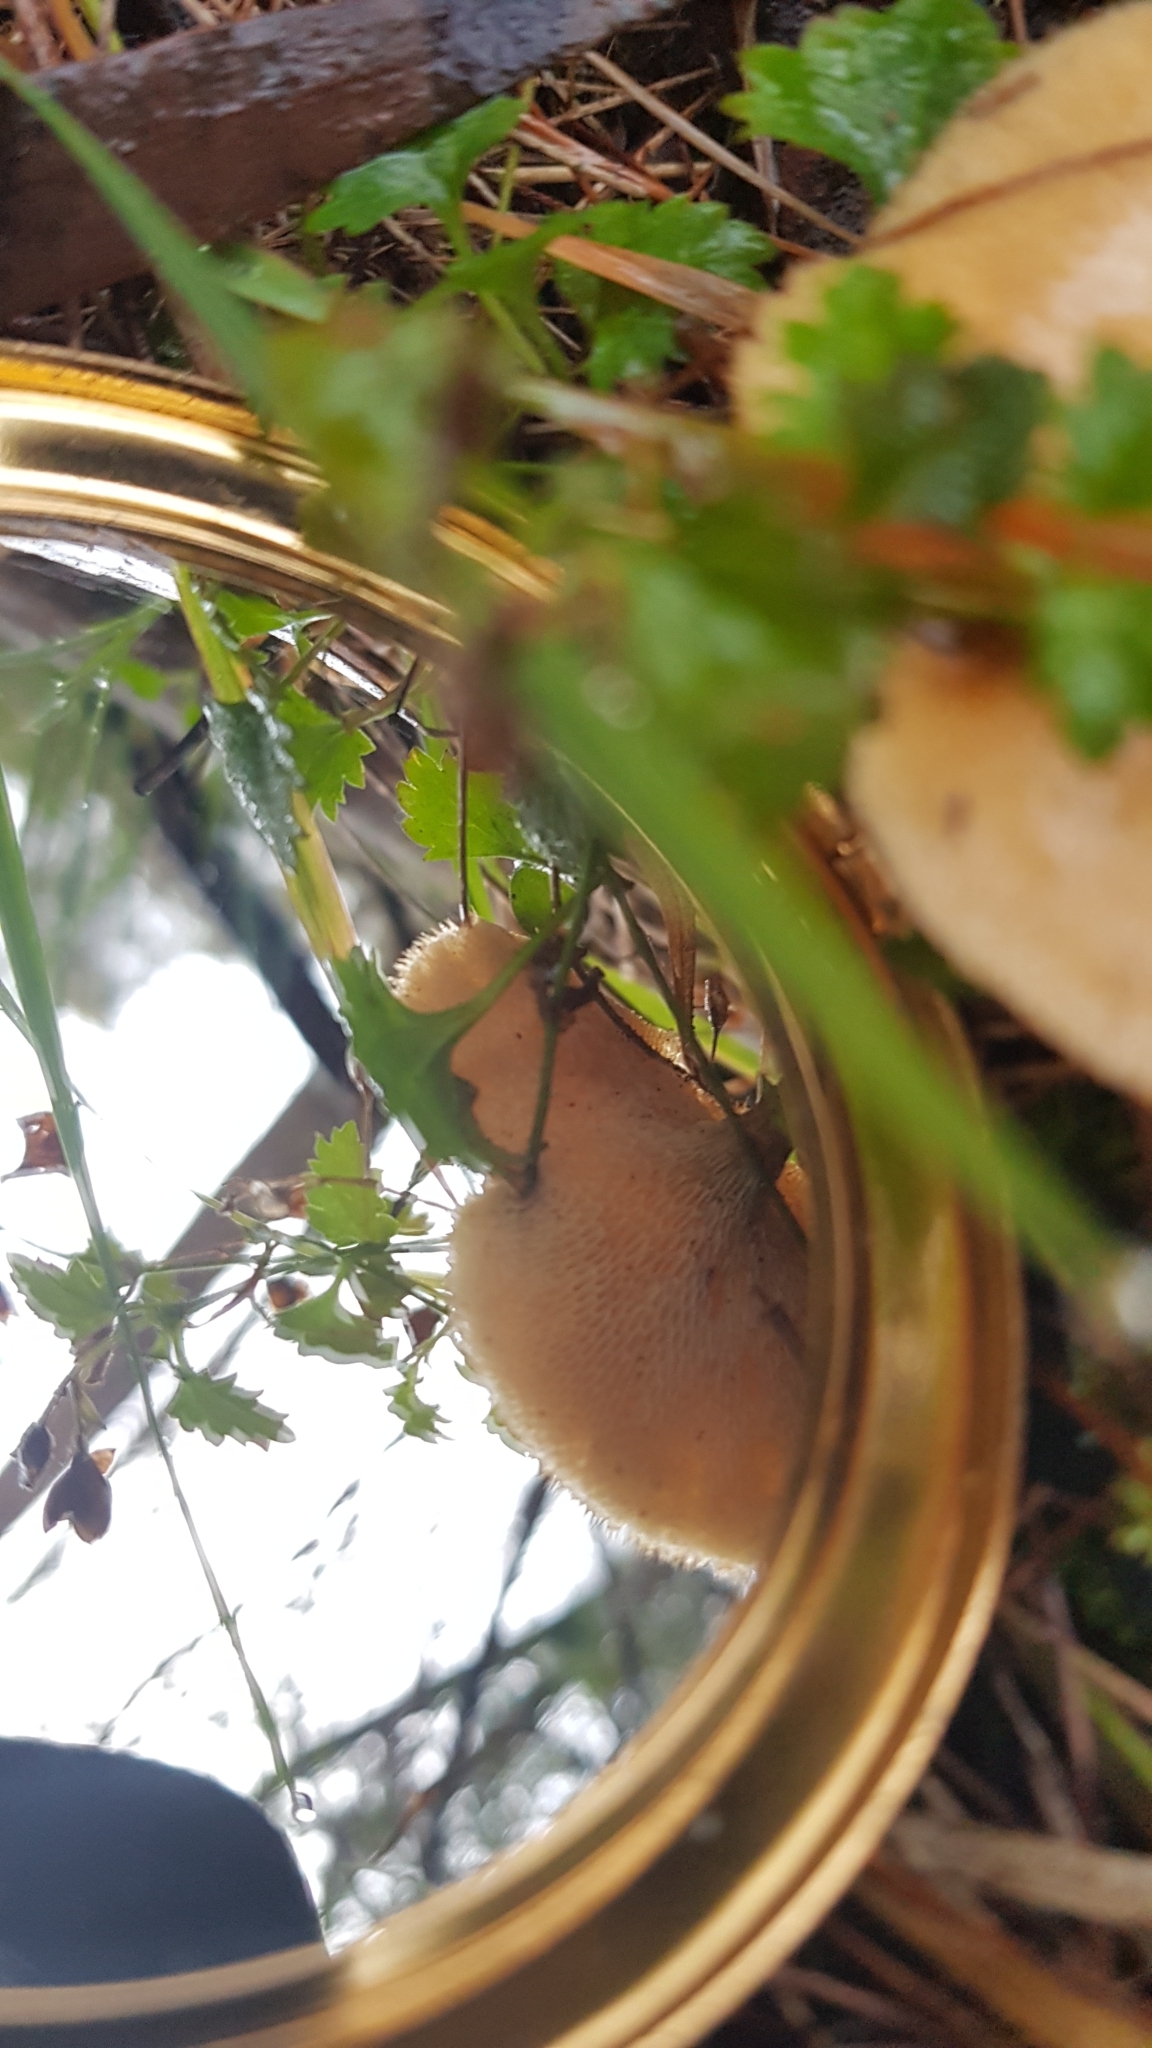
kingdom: Fungi
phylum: Basidiomycota
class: Agaricomycetes
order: Polyporales
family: Polyporaceae
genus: Lentinus
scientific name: Lentinus arcularius
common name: Spring polypore
